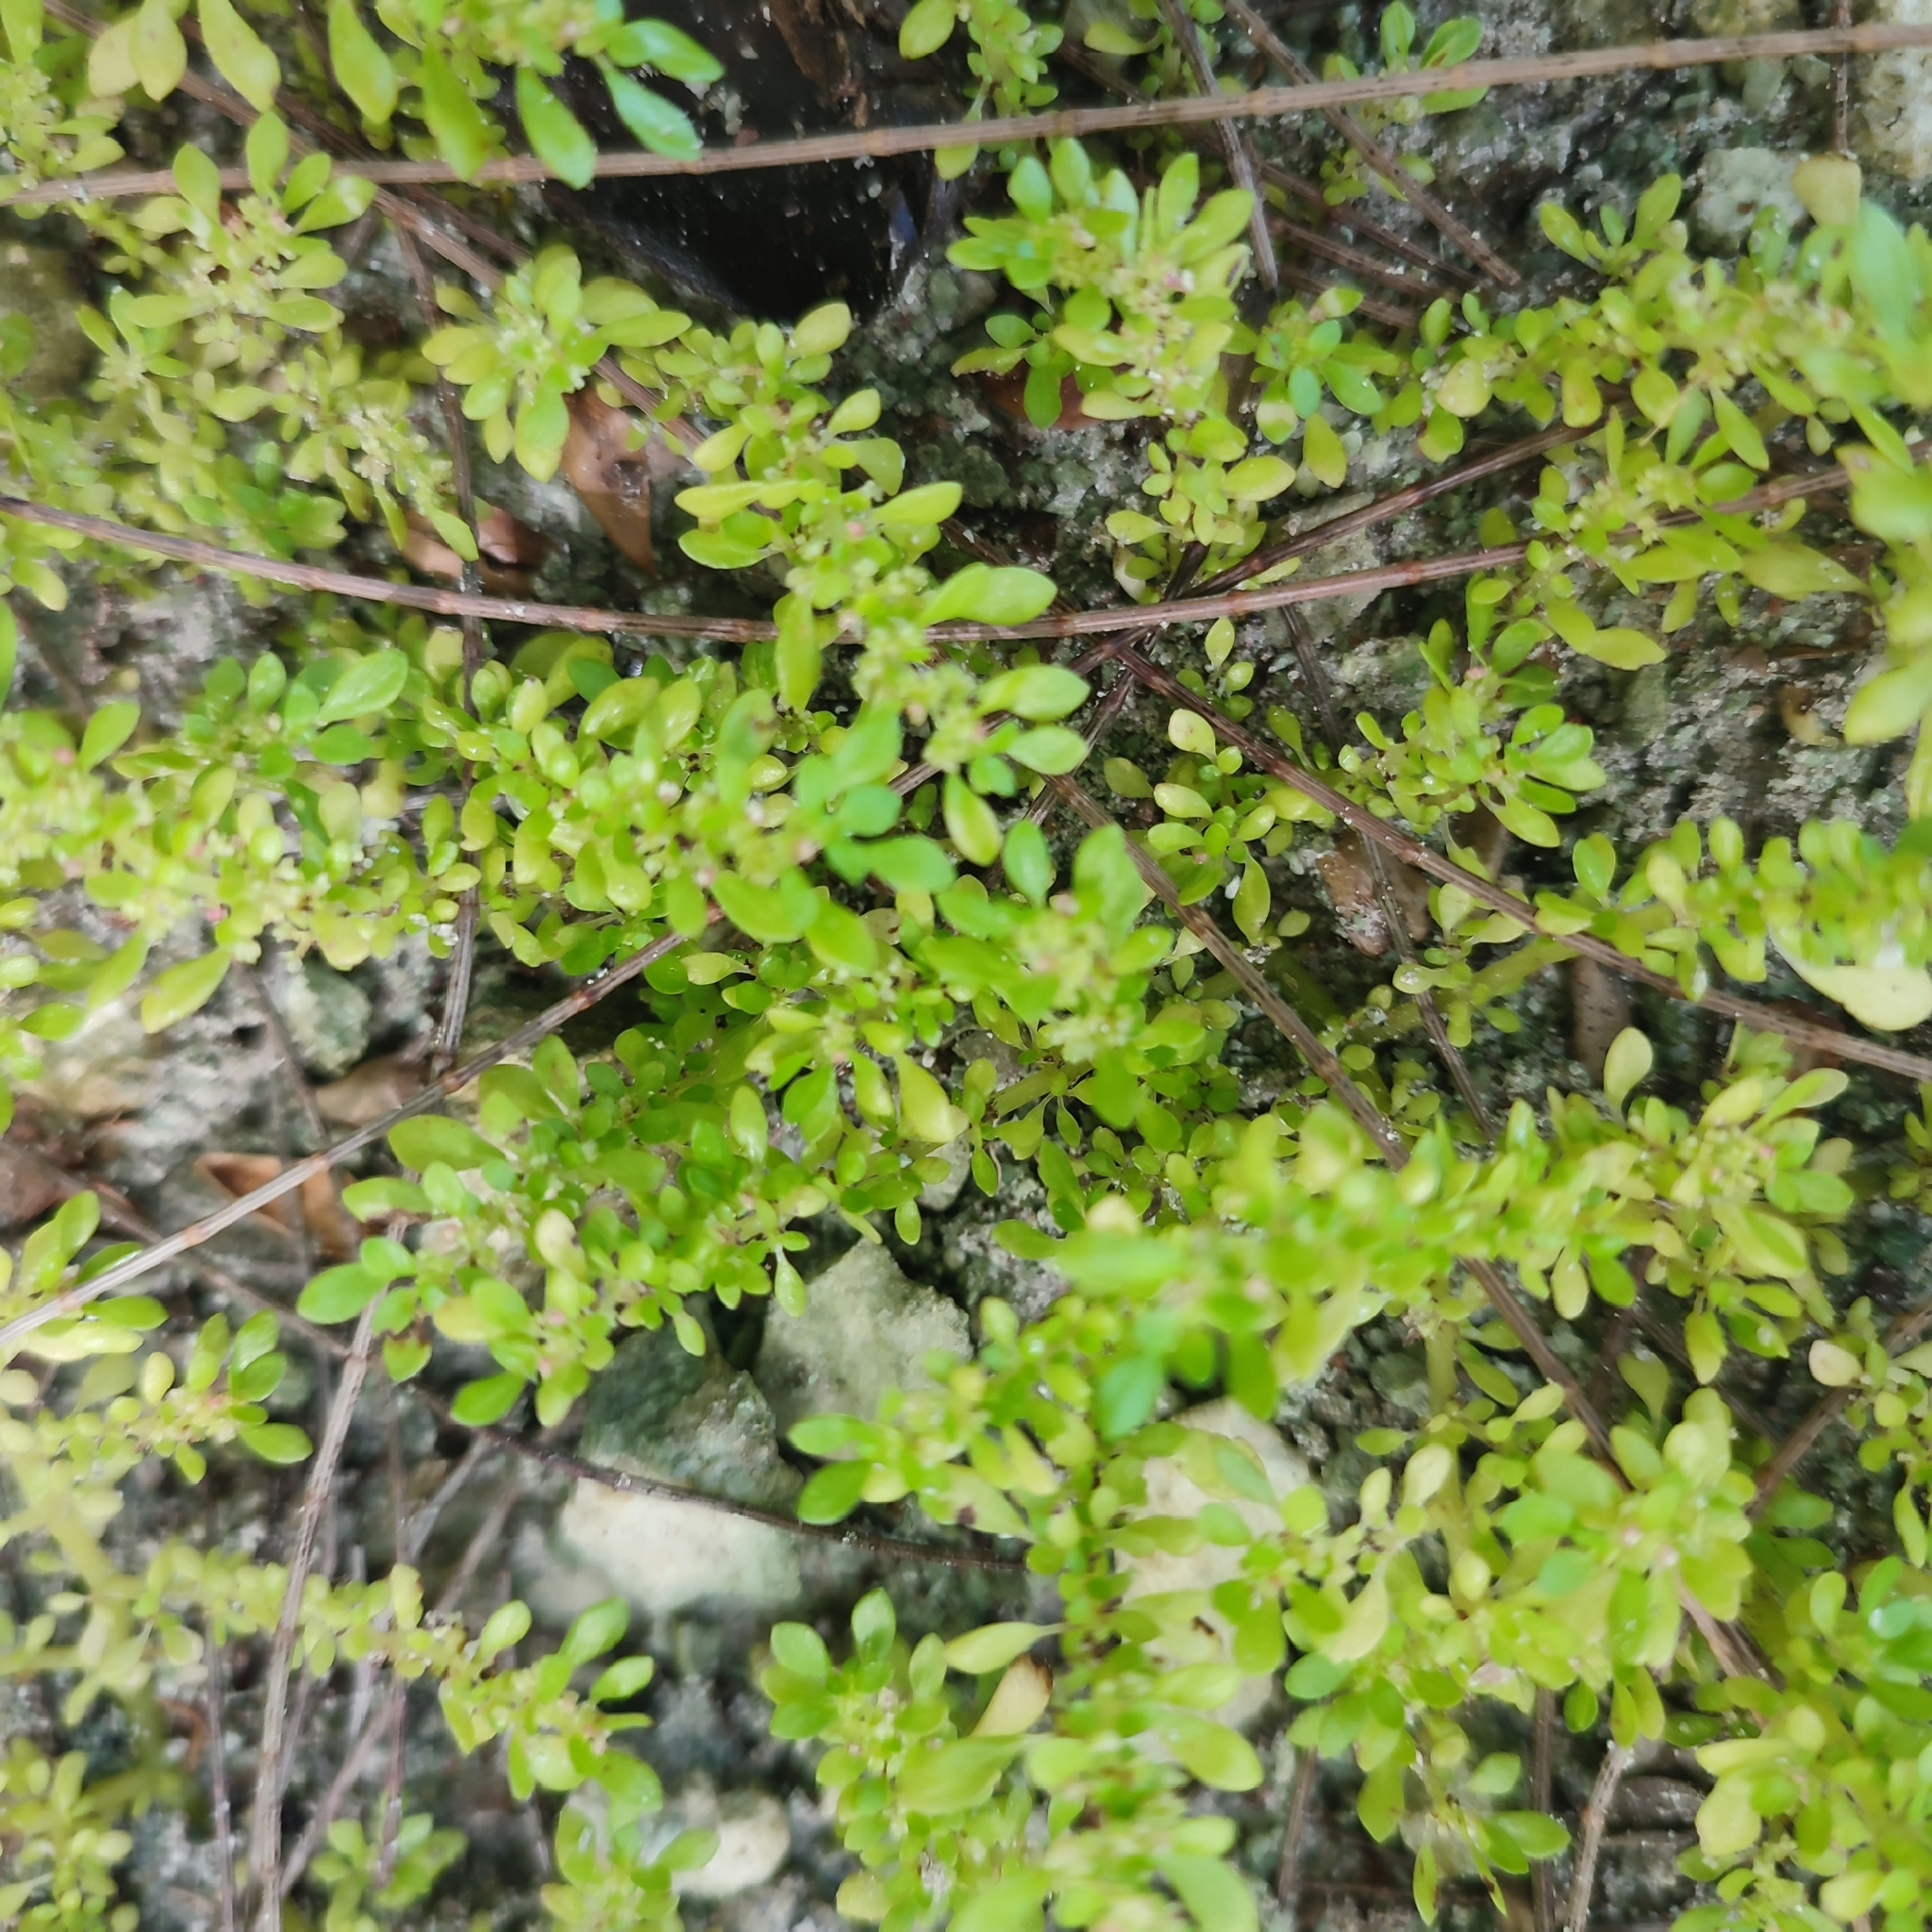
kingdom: Plantae
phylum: Tracheophyta
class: Magnoliopsida
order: Rosales
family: Urticaceae
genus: Pilea
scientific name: Pilea microphylla
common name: Artillery-plant
